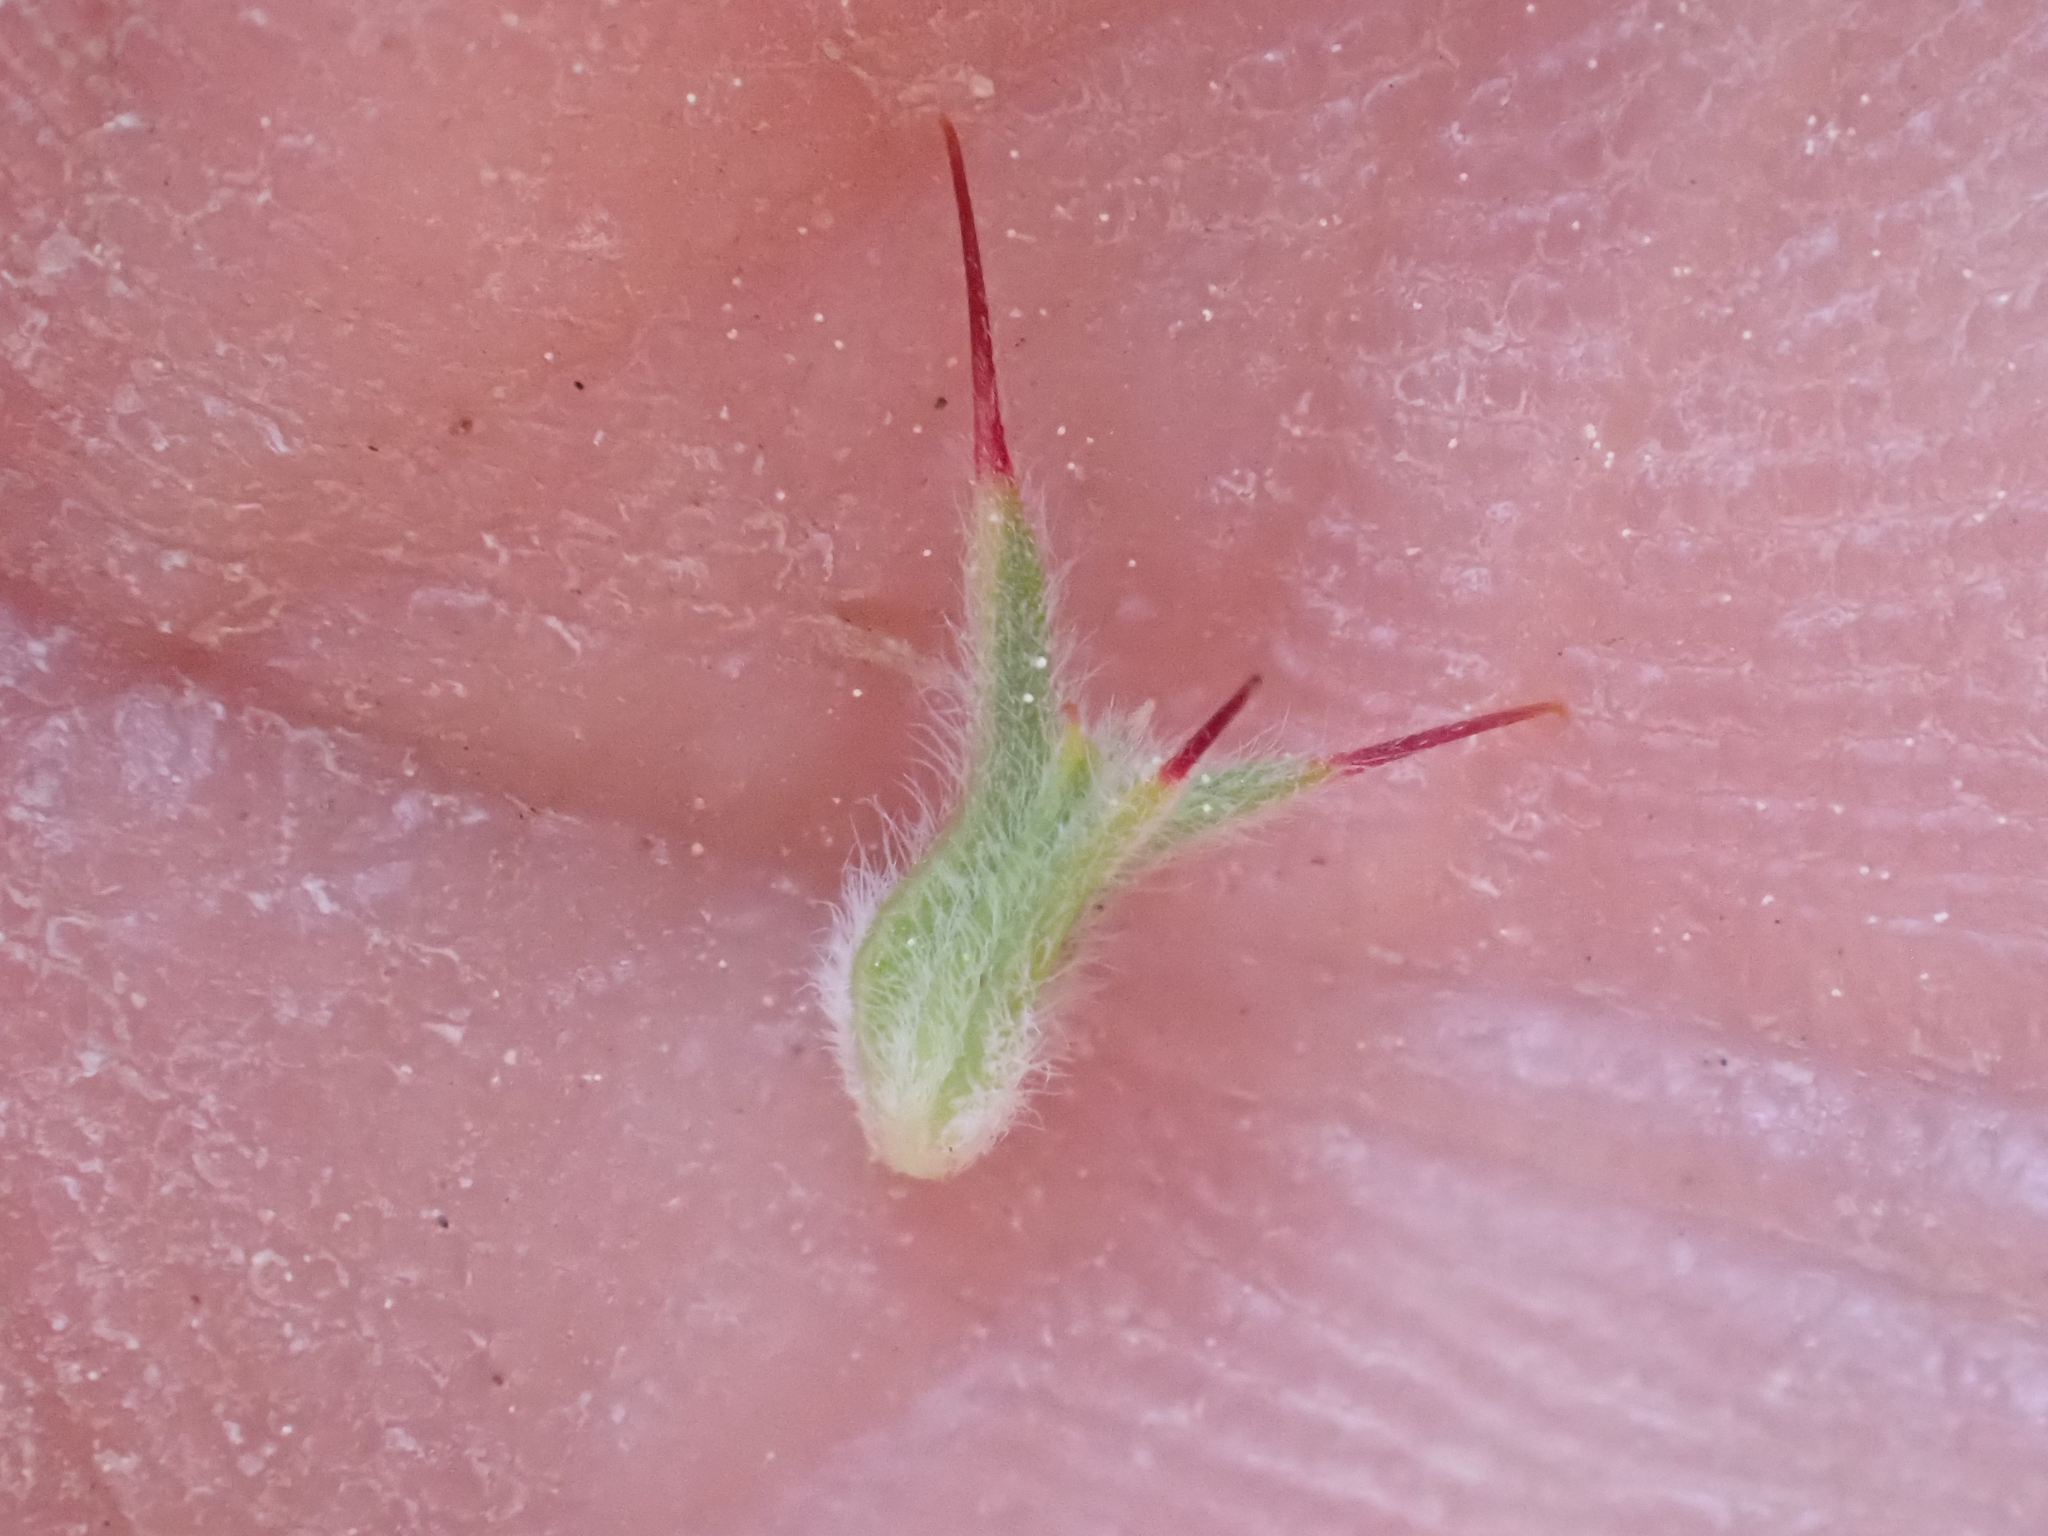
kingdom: Plantae
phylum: Tracheophyta
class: Magnoliopsida
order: Caryophyllales
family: Polygonaceae
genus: Chorizanthe
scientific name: Chorizanthe clevelandii
